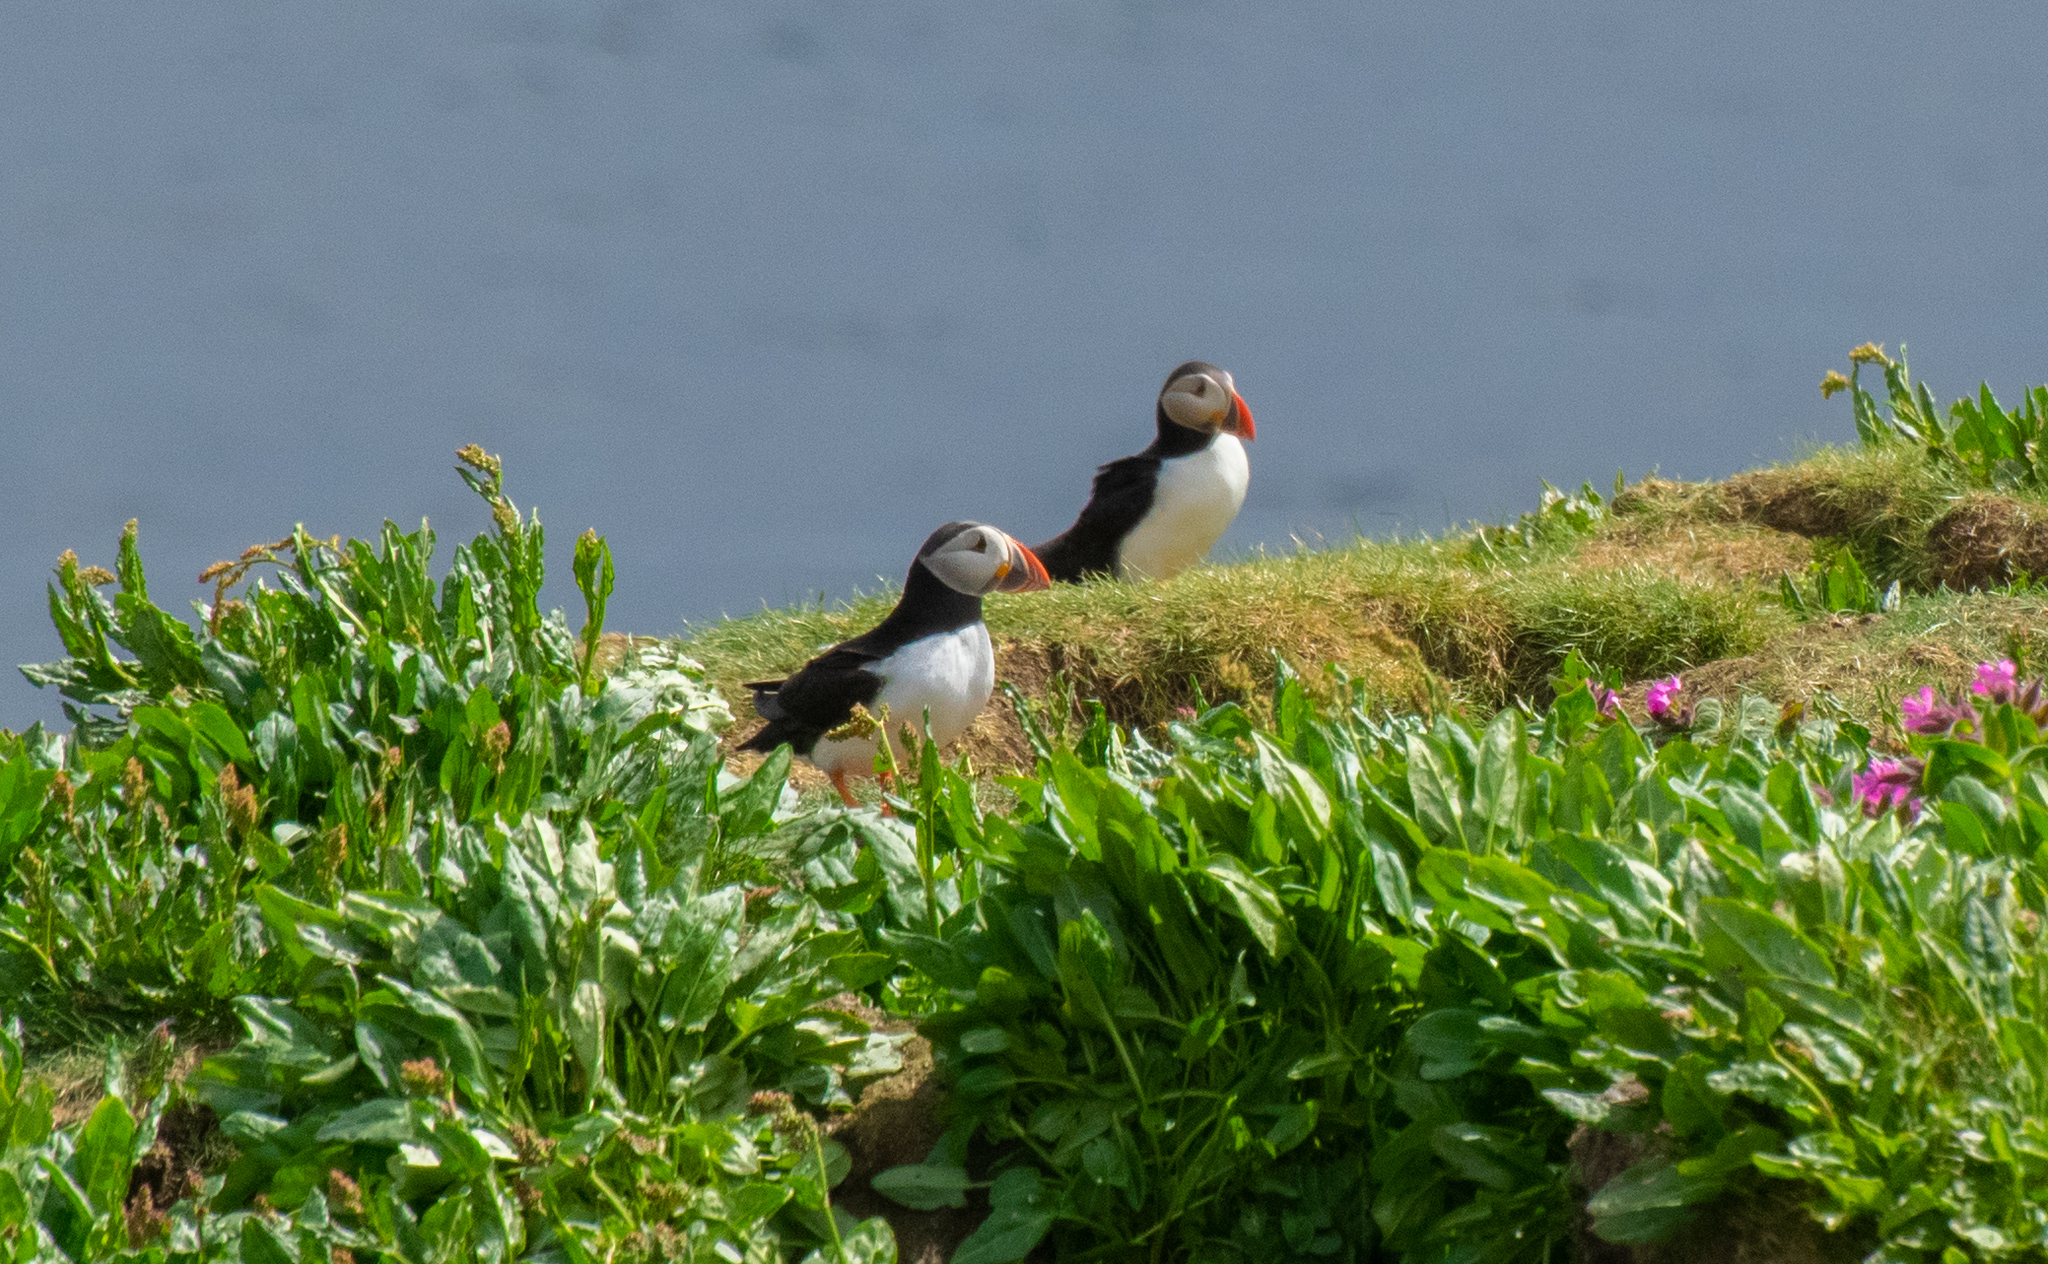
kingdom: Animalia
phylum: Chordata
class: Aves
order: Charadriiformes
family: Alcidae
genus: Fratercula
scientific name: Fratercula arctica
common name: Atlantic puffin
